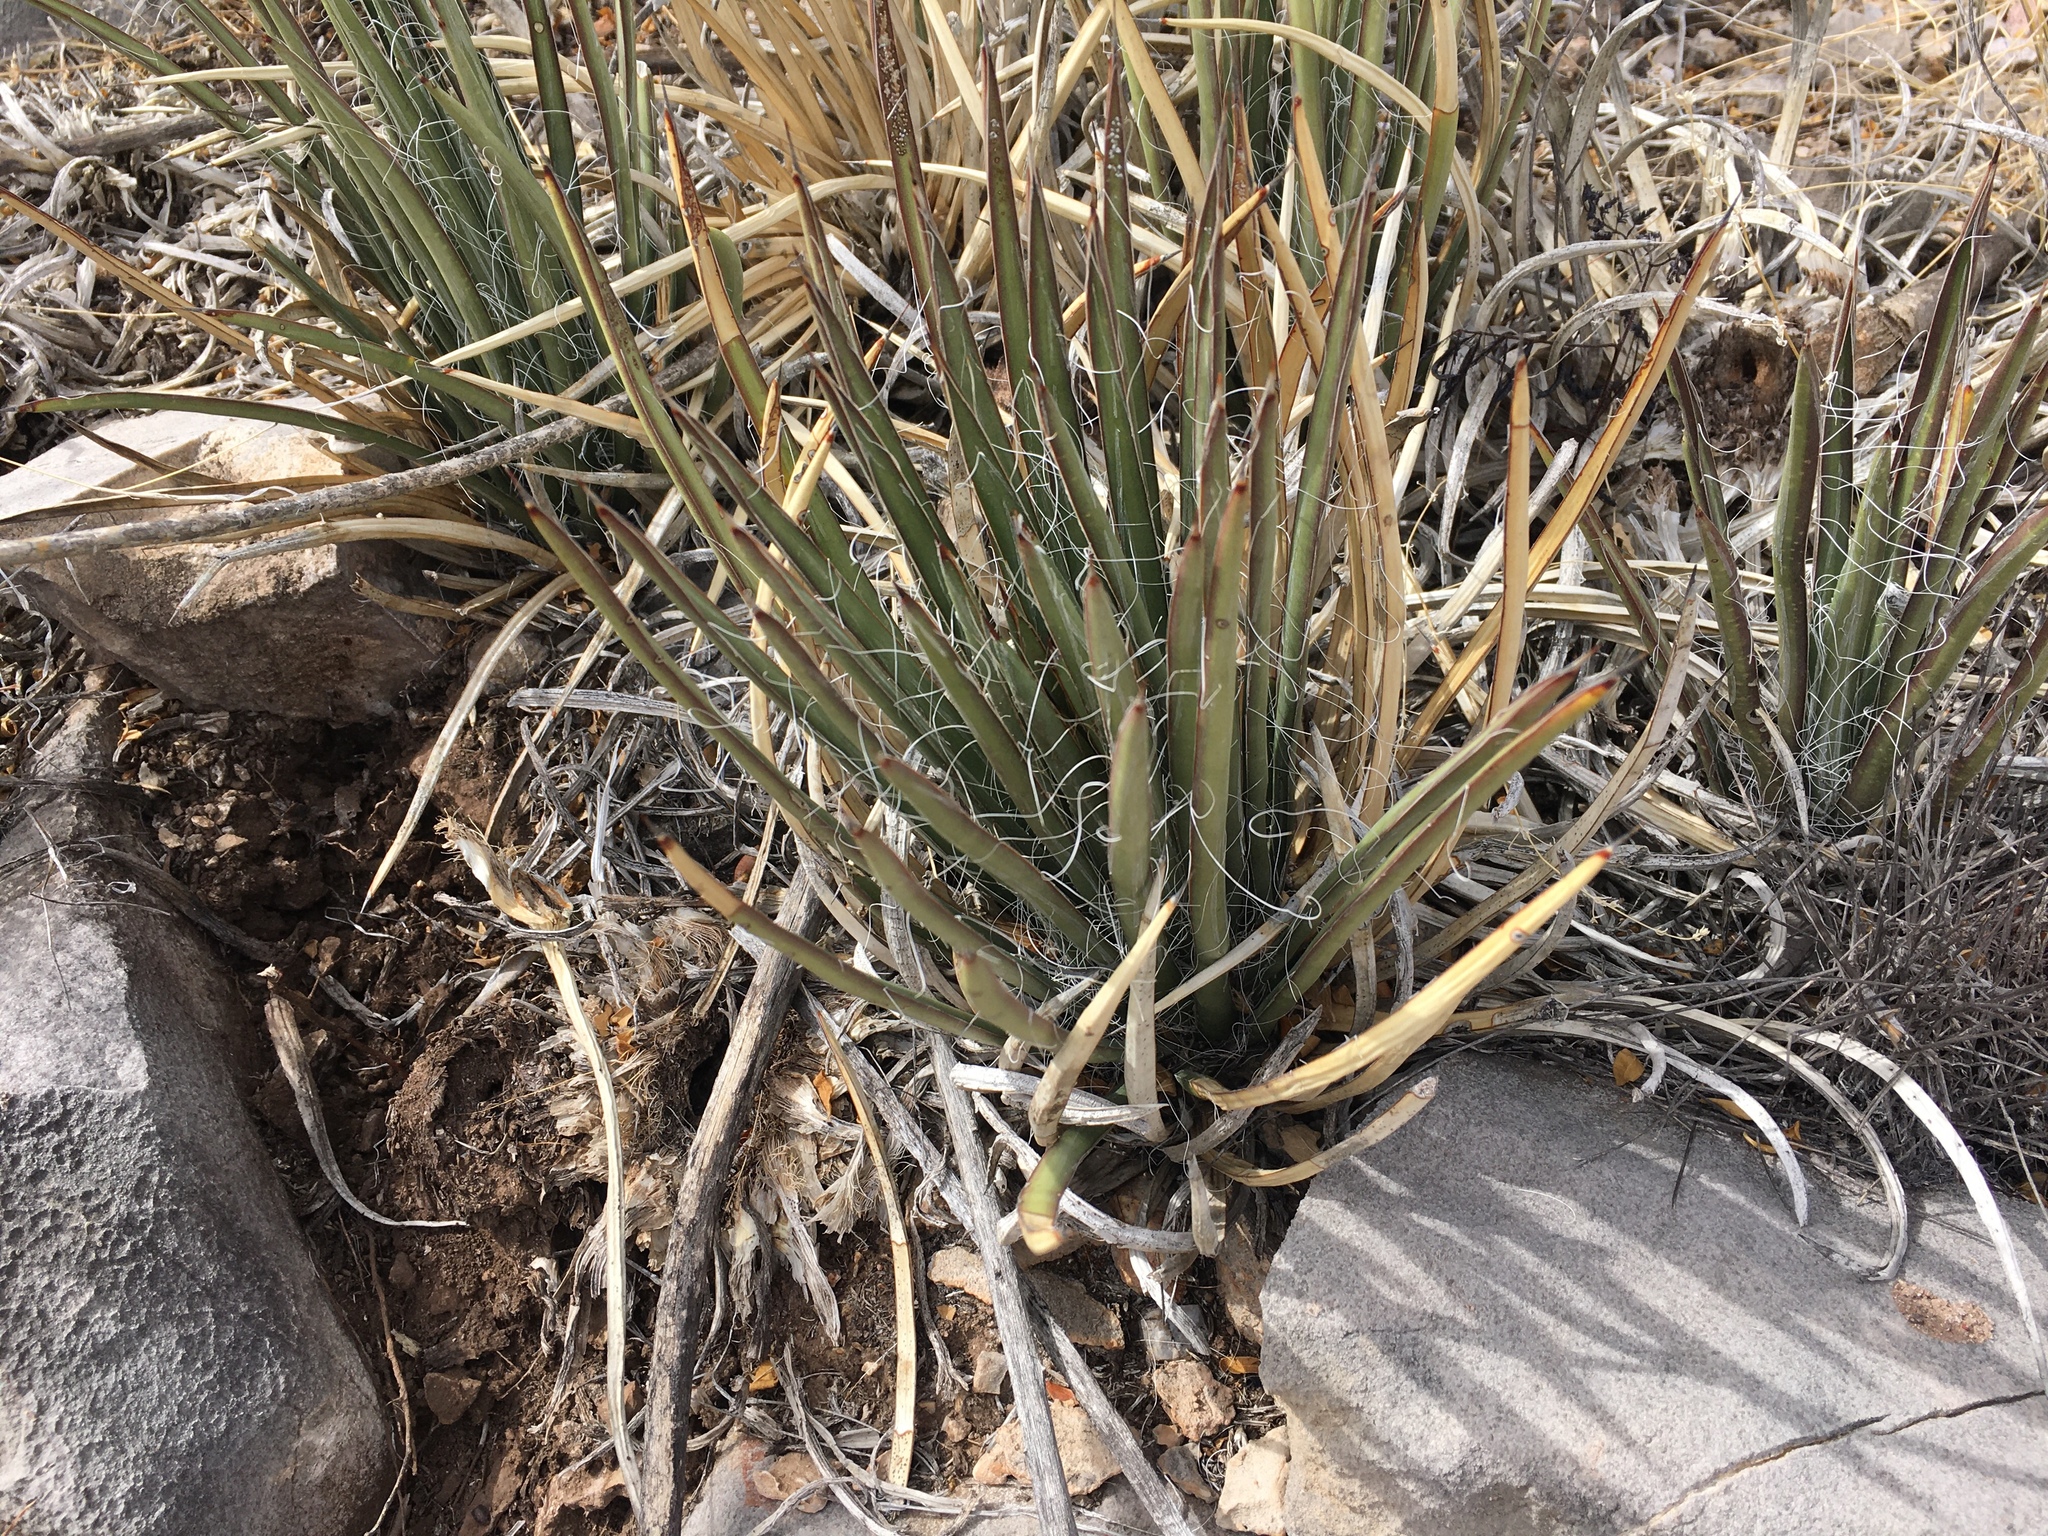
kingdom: Plantae
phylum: Tracheophyta
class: Liliopsida
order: Asparagales
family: Asparagaceae
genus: Agave
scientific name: Agave schottii
